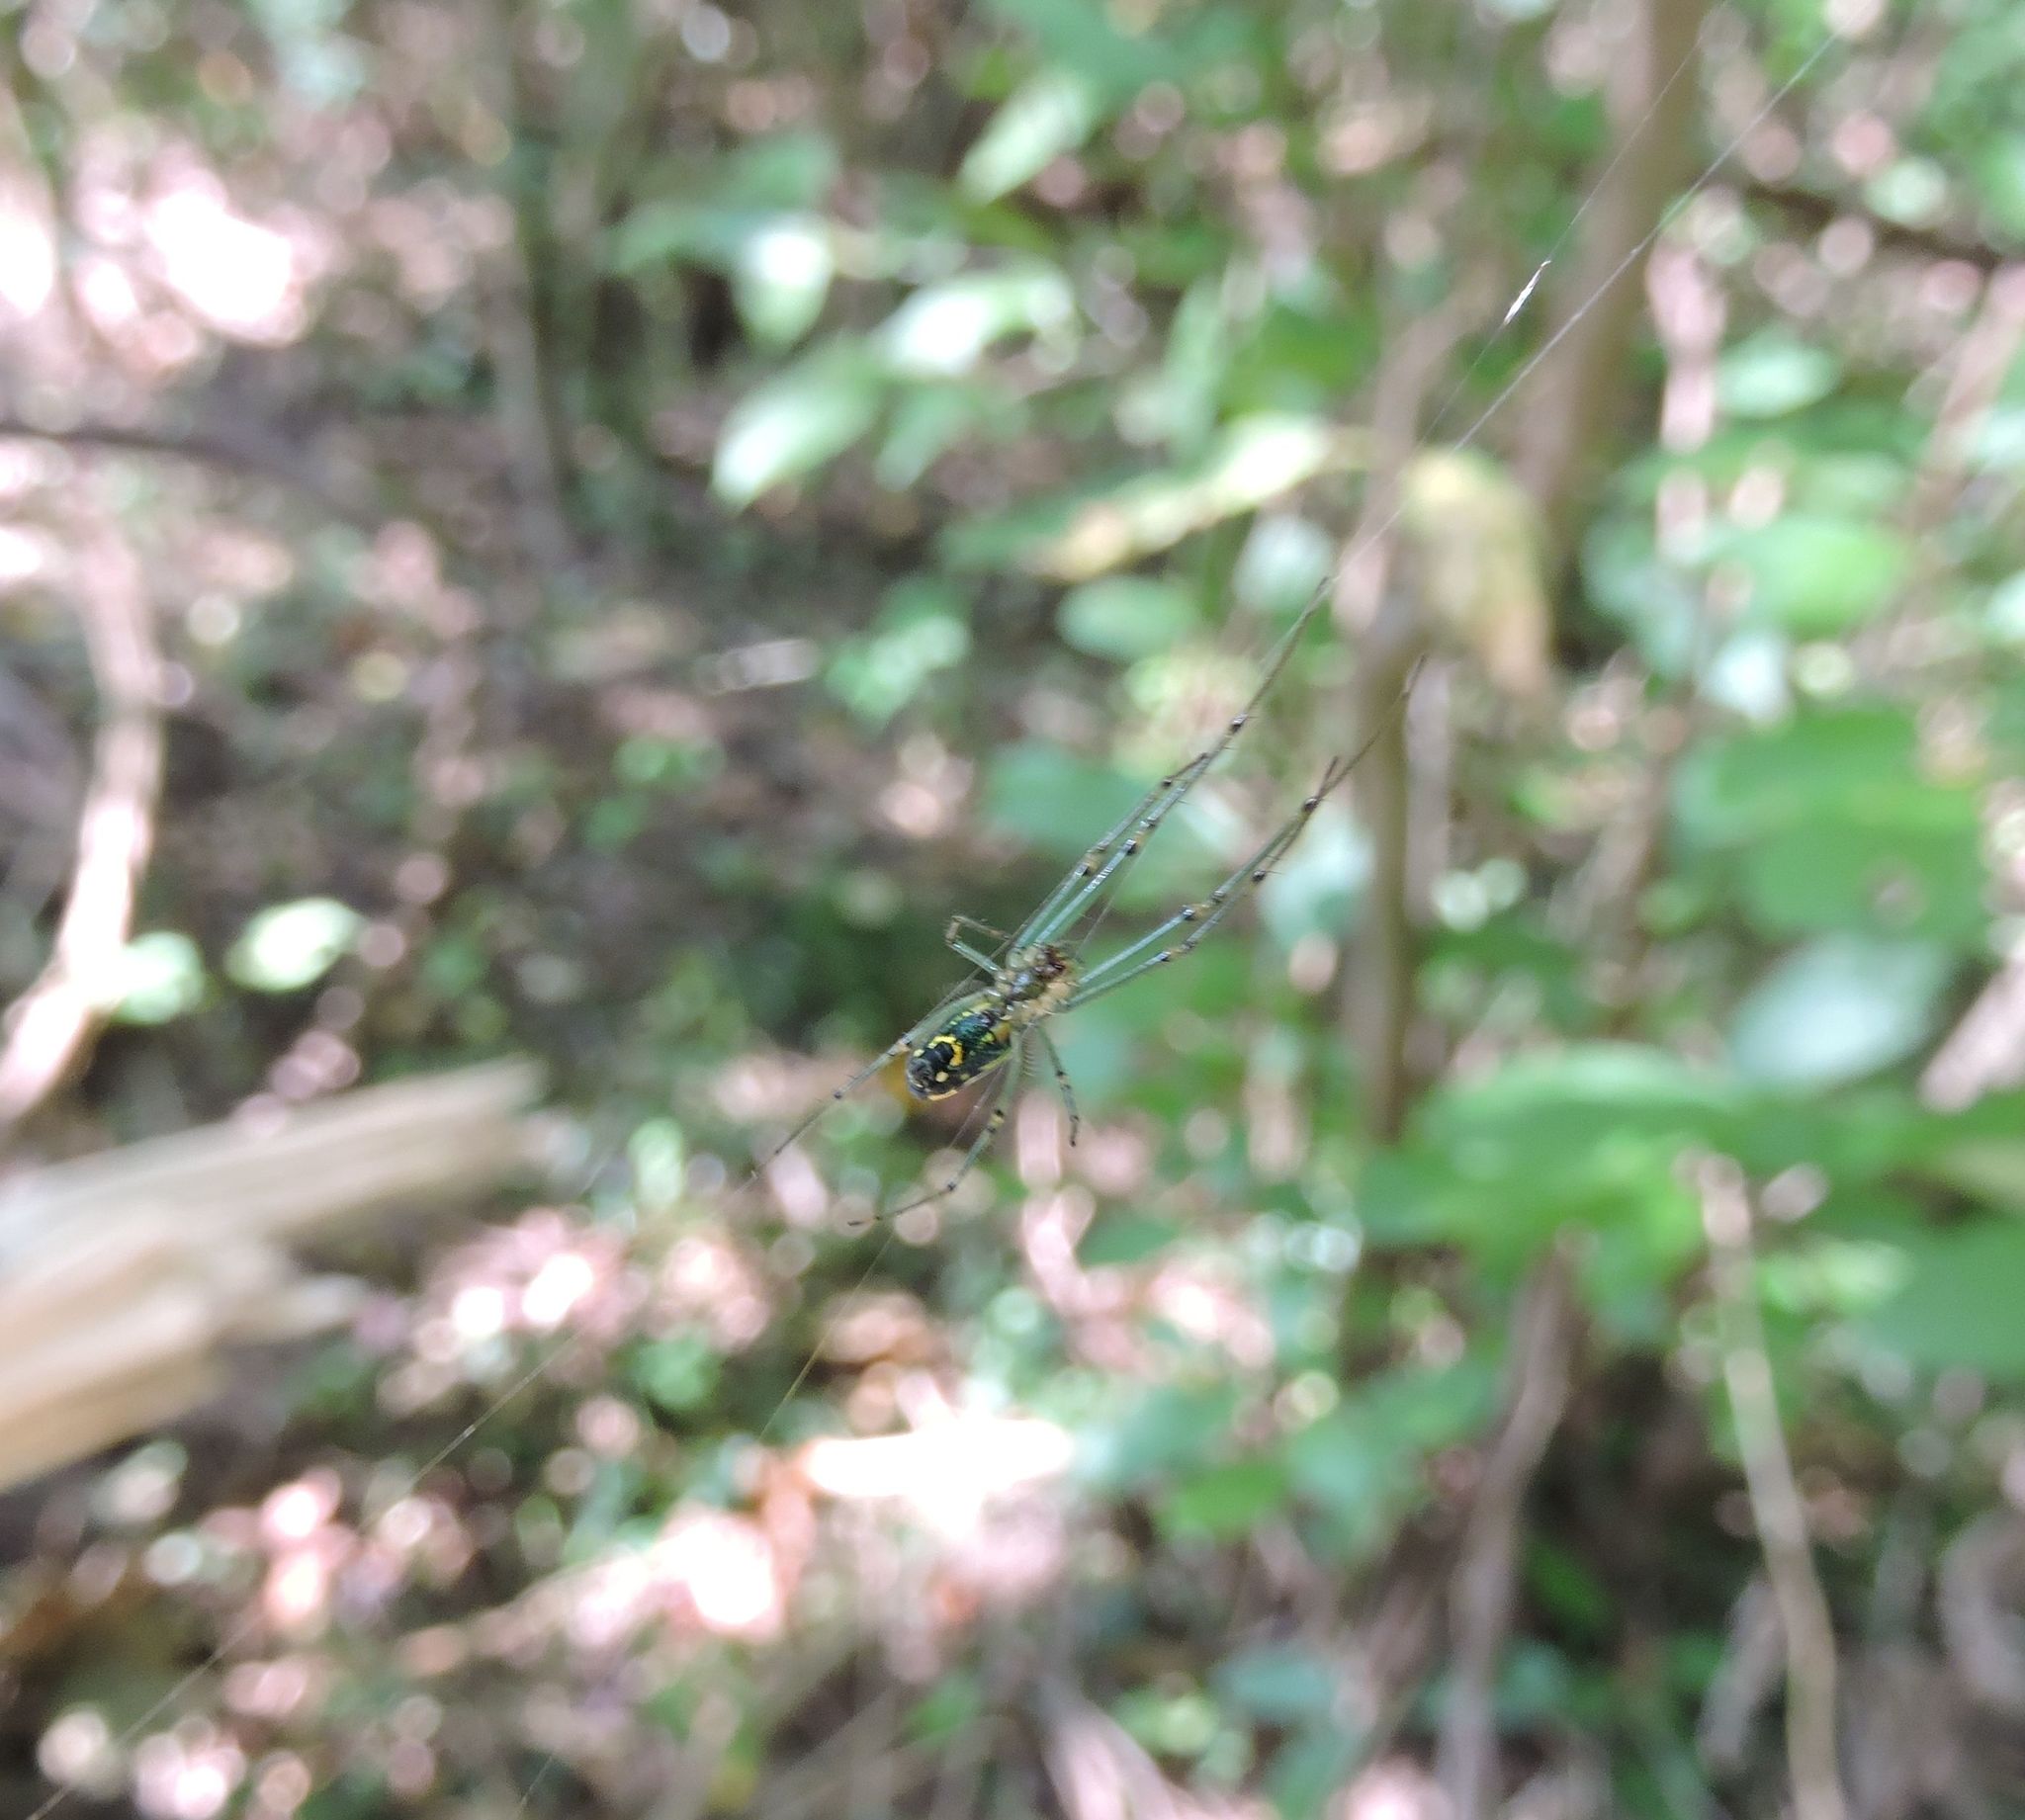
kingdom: Animalia
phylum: Arthropoda
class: Arachnida
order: Araneae
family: Tetragnathidae
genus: Leucauge
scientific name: Leucauge venusta
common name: Longjawed orb weavers
